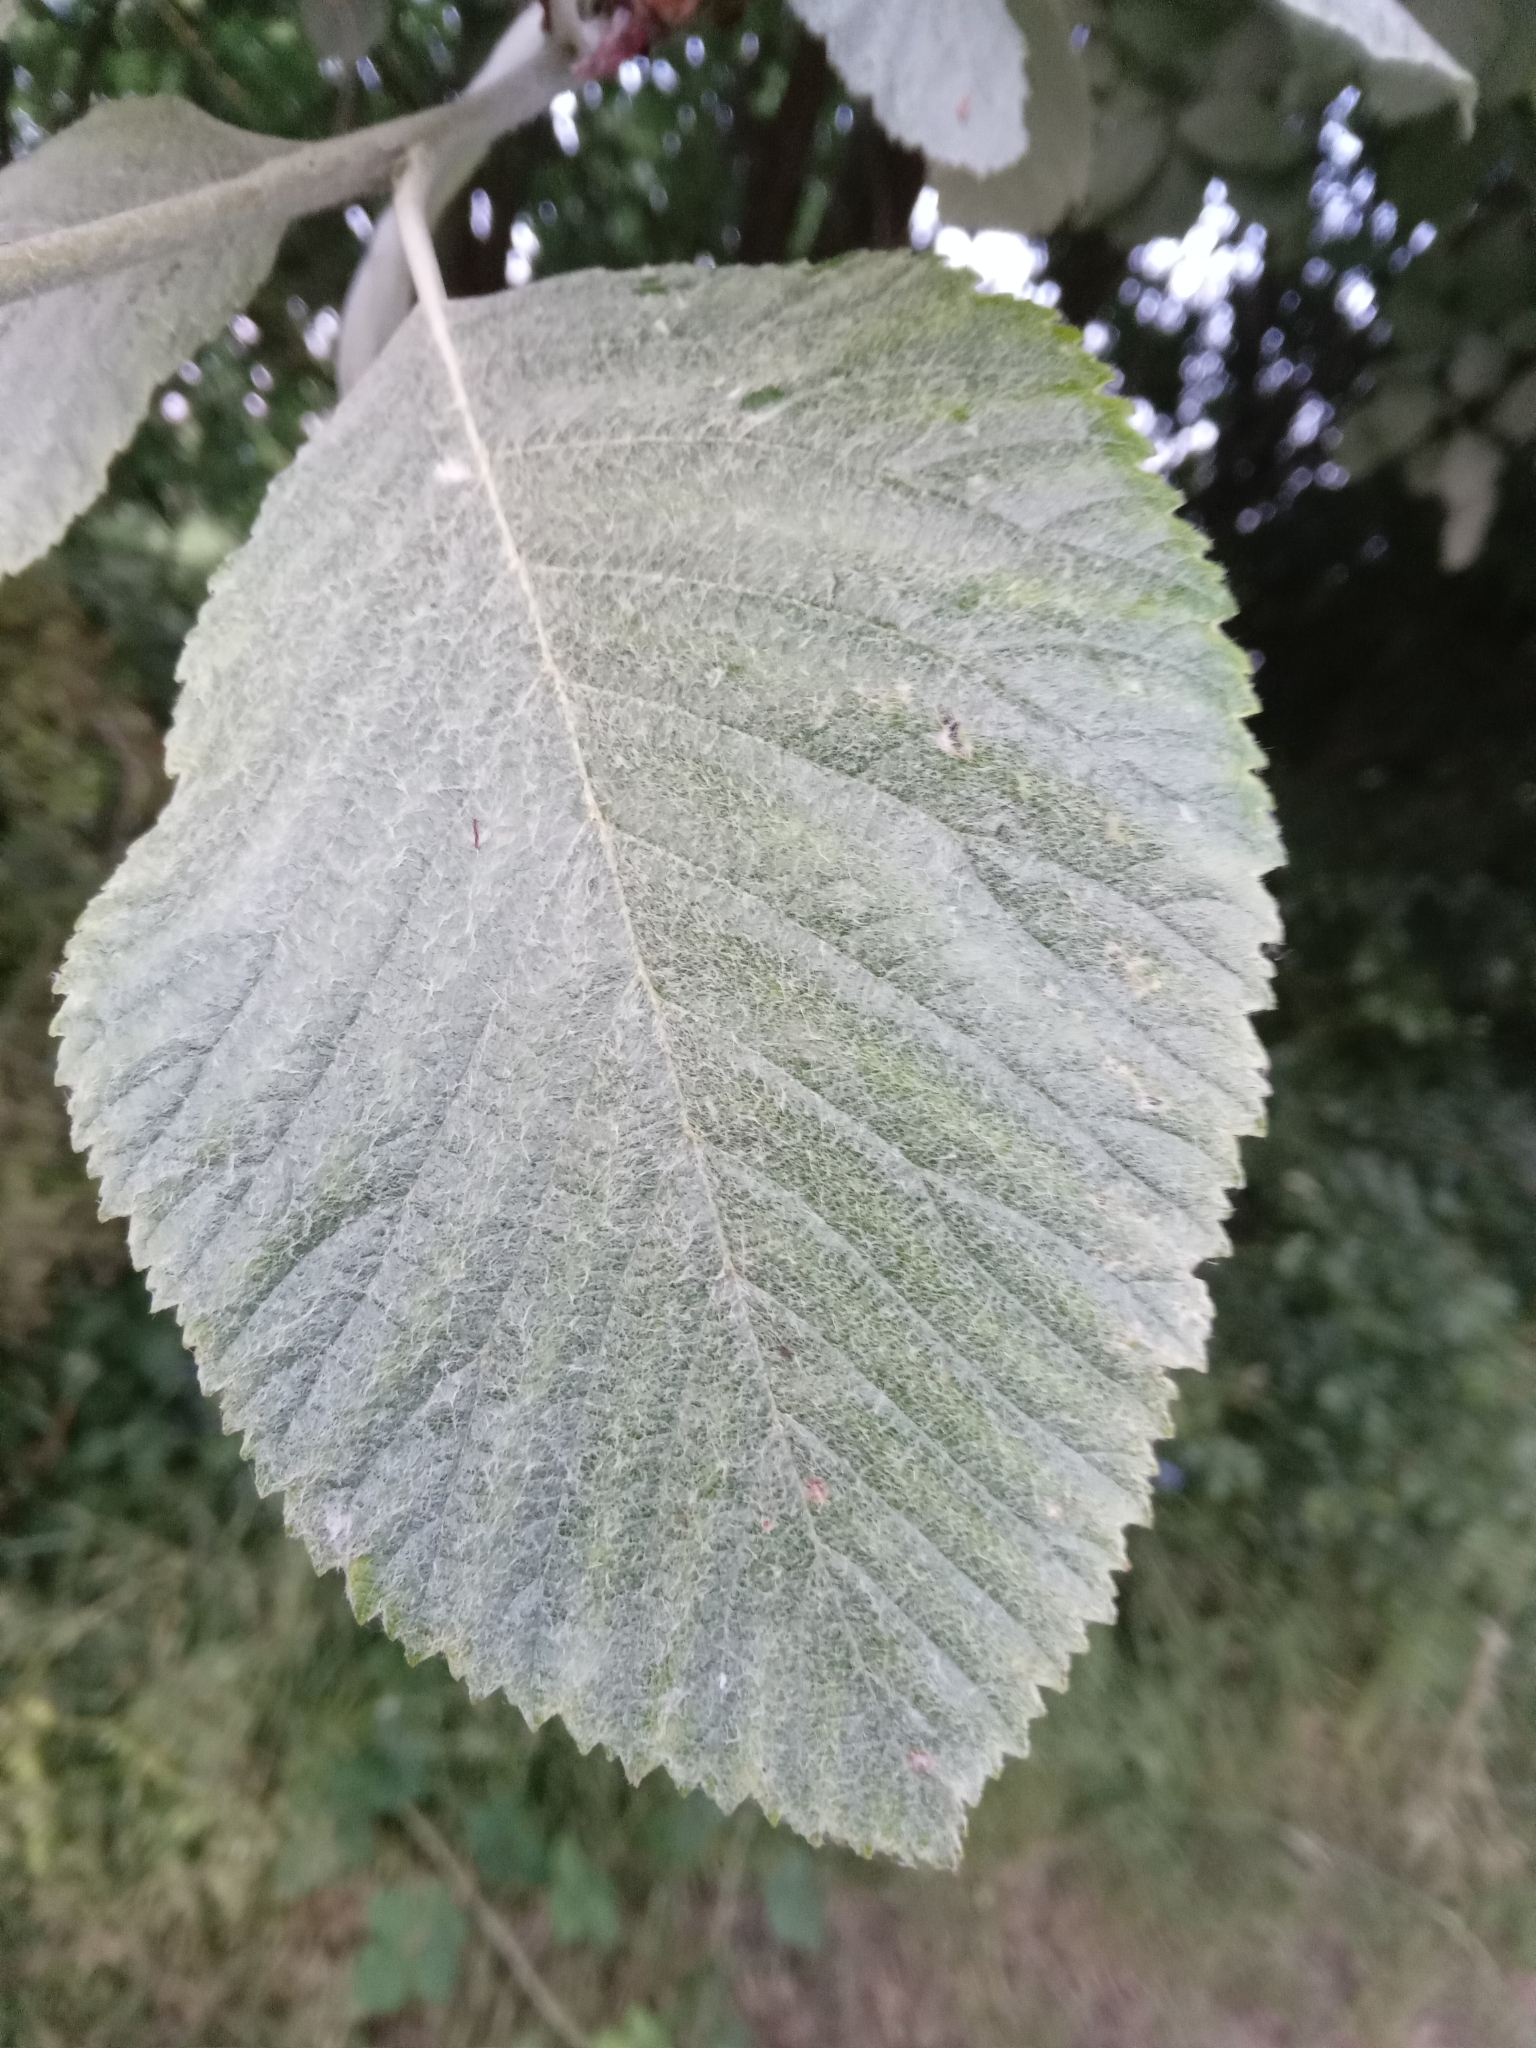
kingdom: Plantae
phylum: Tracheophyta
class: Magnoliopsida
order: Rosales
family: Rosaceae
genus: Aria
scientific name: Aria edulis
